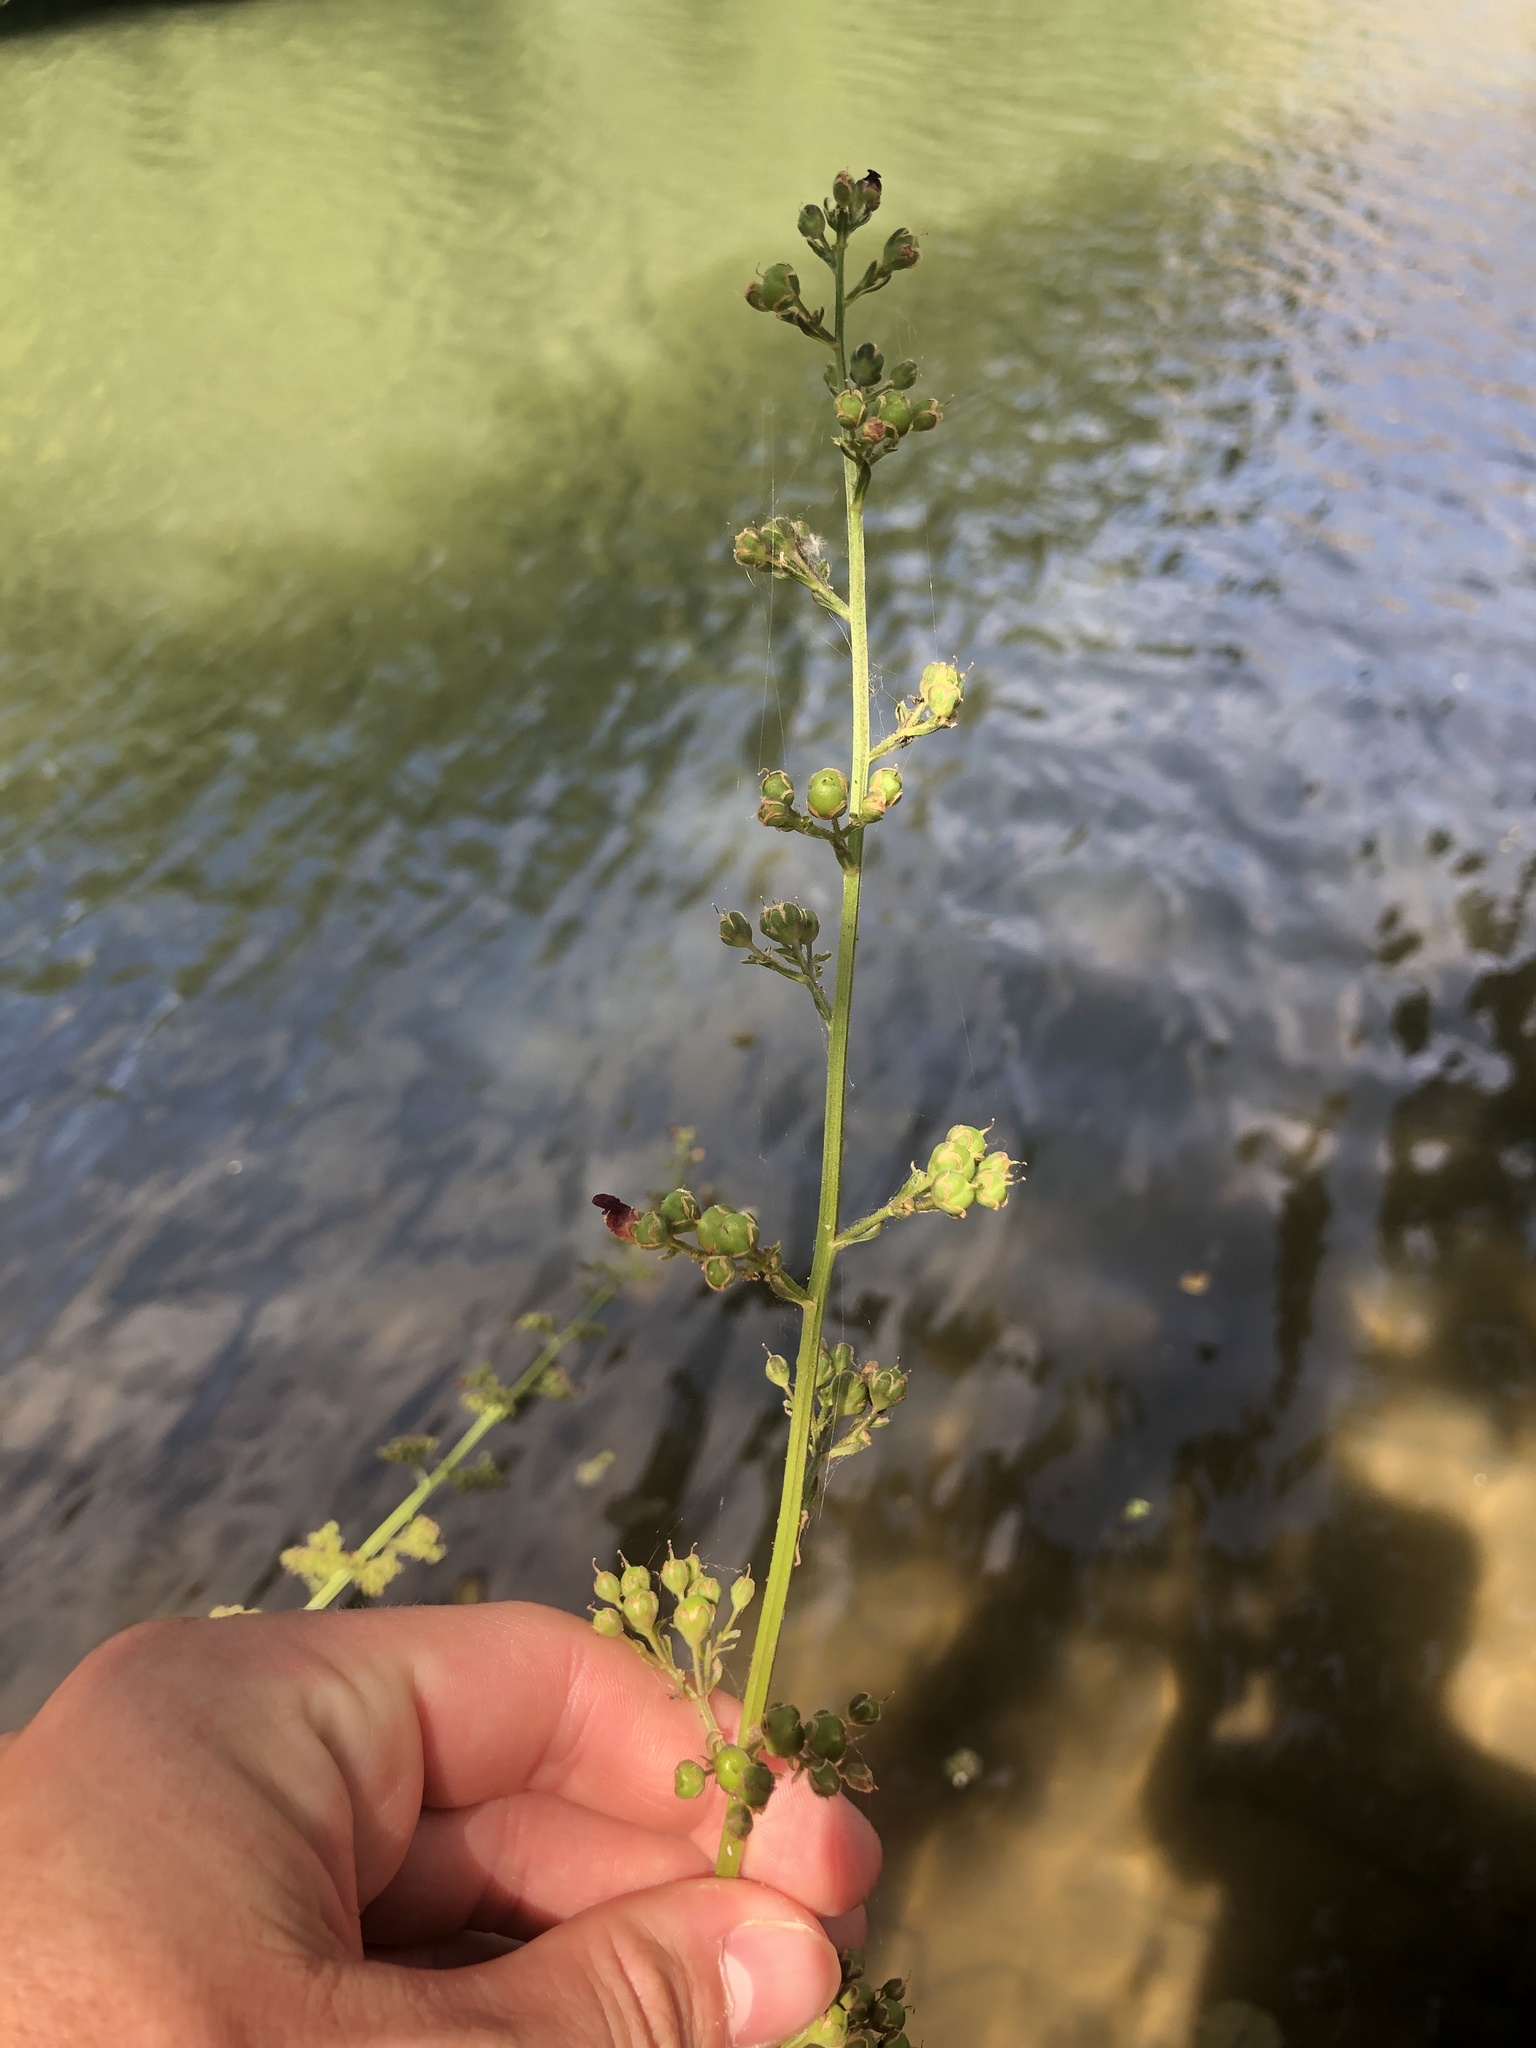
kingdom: Plantae
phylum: Tracheophyta
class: Magnoliopsida
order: Lamiales
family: Scrophulariaceae
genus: Scrophularia
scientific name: Scrophularia auriculata
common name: Water betony
